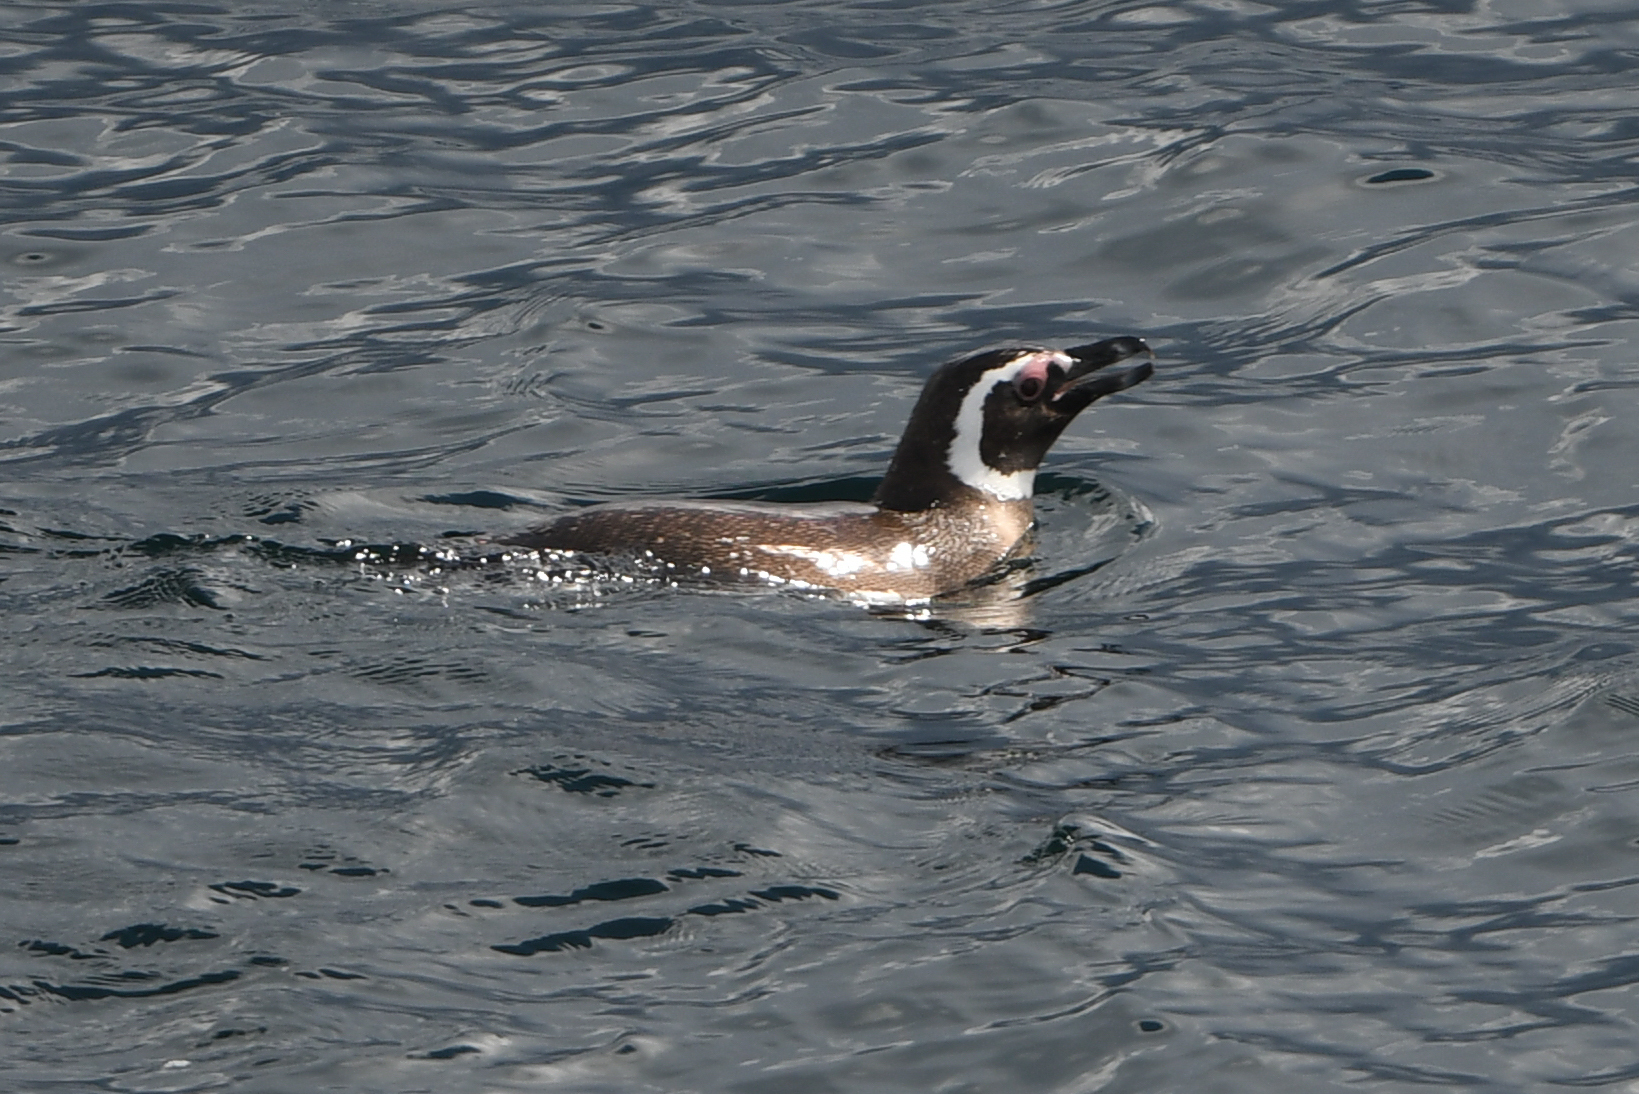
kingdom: Animalia
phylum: Chordata
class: Aves
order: Sphenisciformes
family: Spheniscidae
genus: Spheniscus
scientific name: Spheniscus magellanicus
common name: Magellanic penguin
